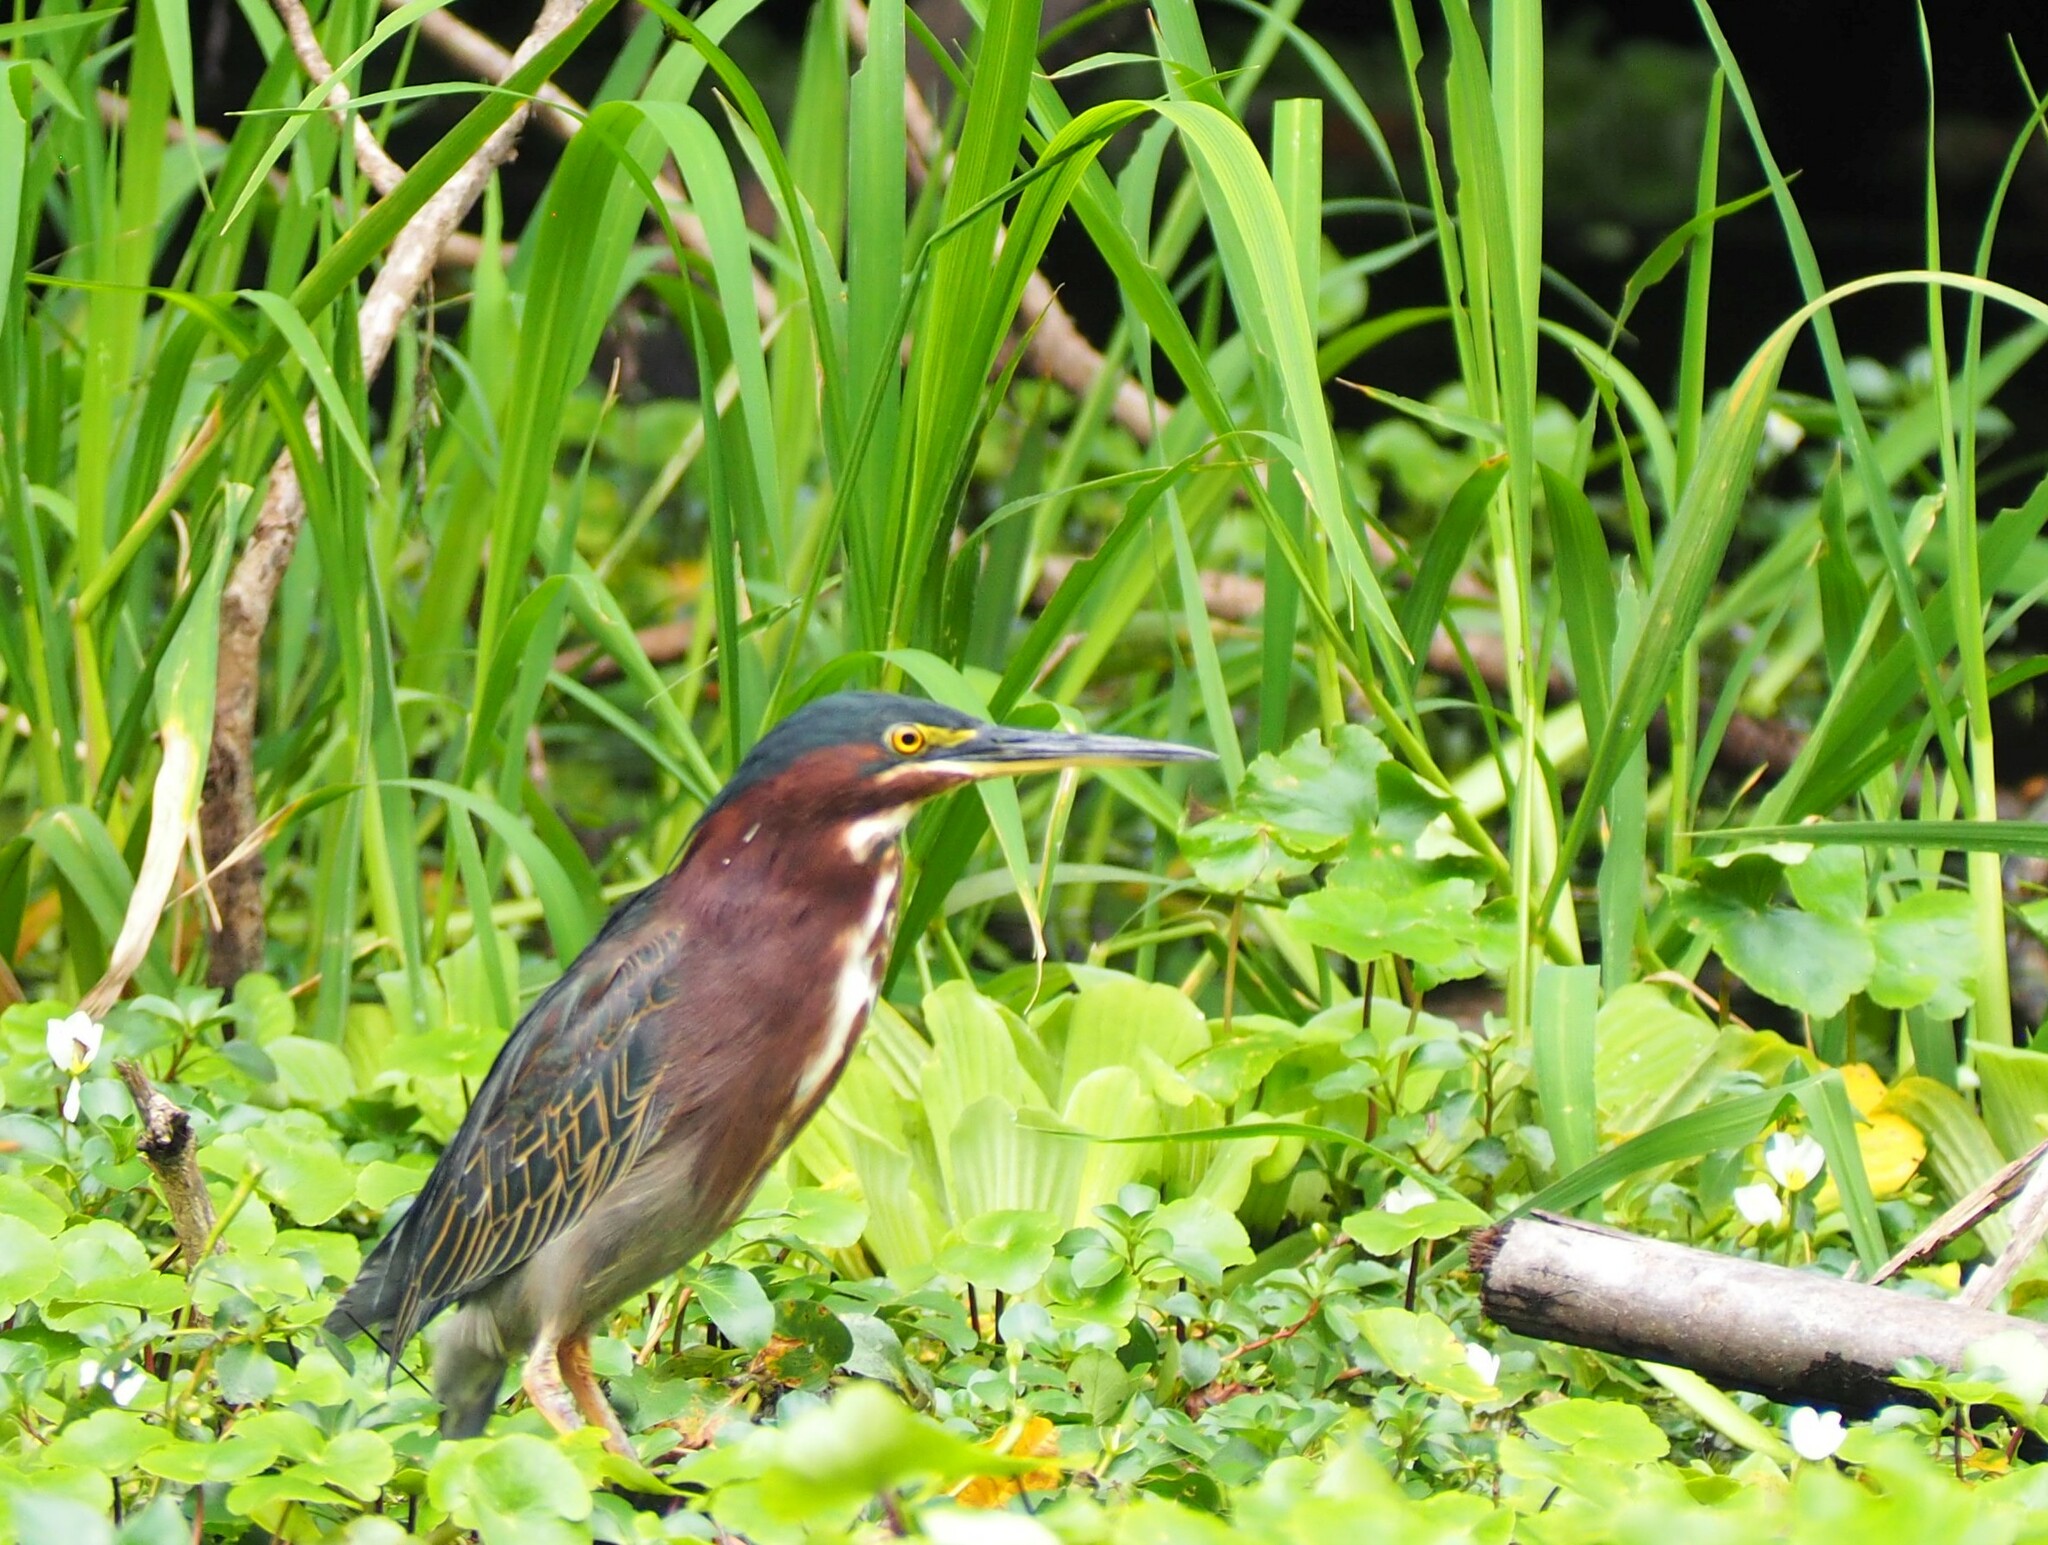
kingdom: Animalia
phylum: Chordata
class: Aves
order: Pelecaniformes
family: Ardeidae
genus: Butorides
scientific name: Butorides virescens
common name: Green heron
